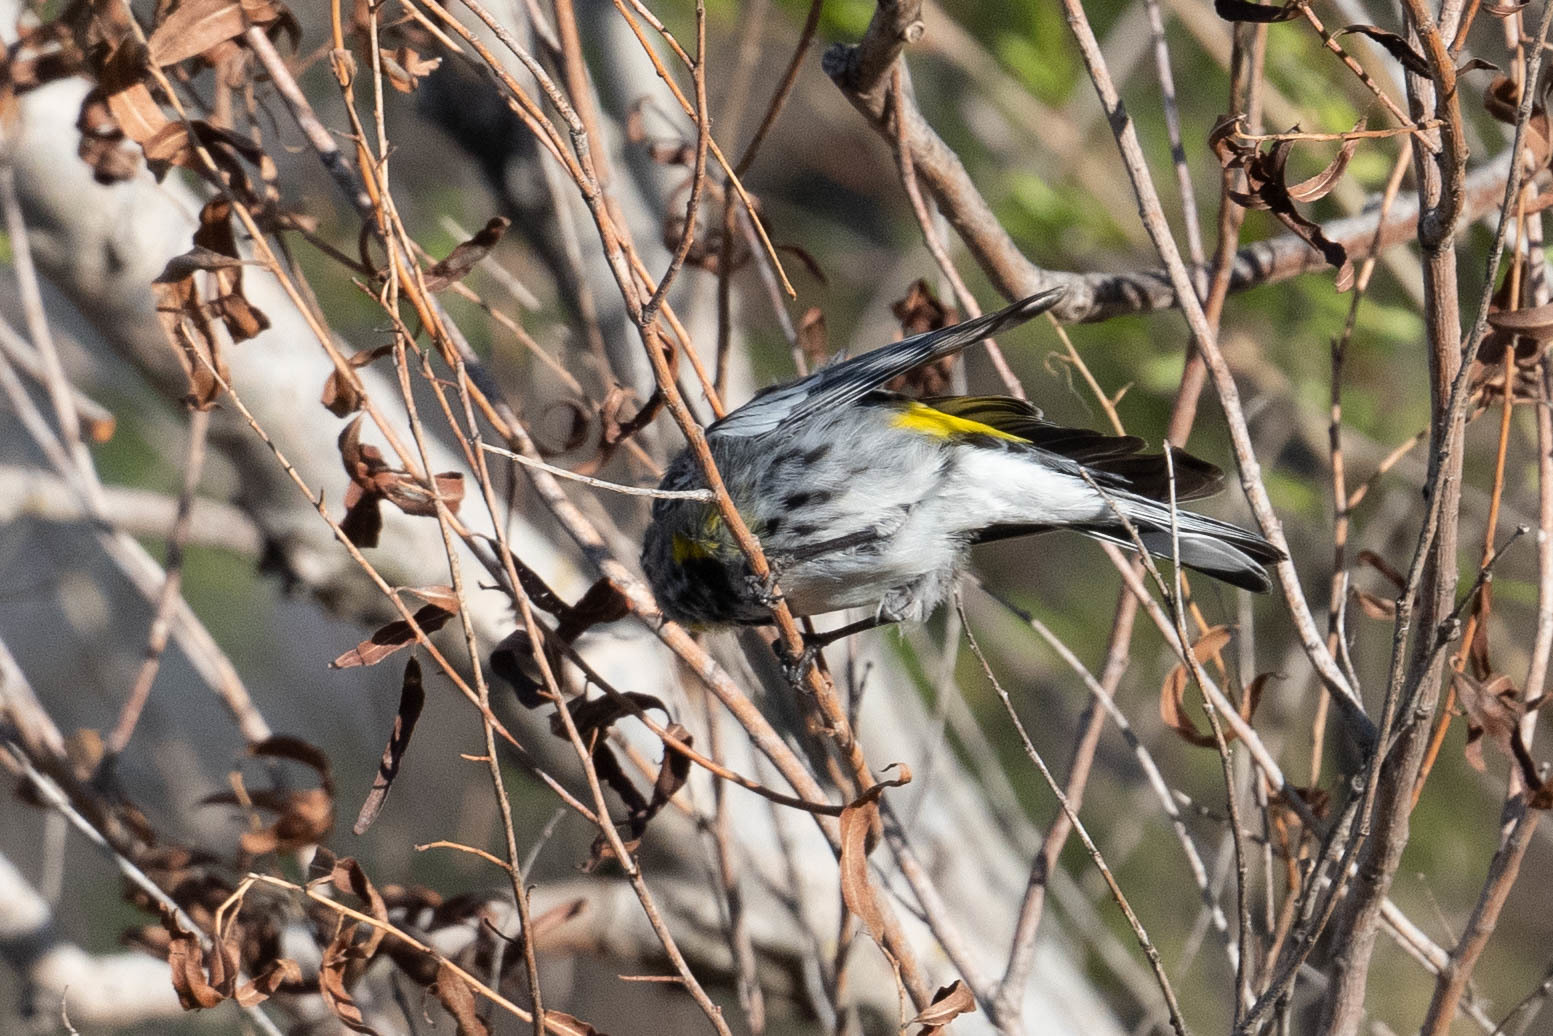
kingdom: Animalia
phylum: Chordata
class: Aves
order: Passeriformes
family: Parulidae
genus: Setophaga
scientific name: Setophaga coronata
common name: Myrtle warbler
